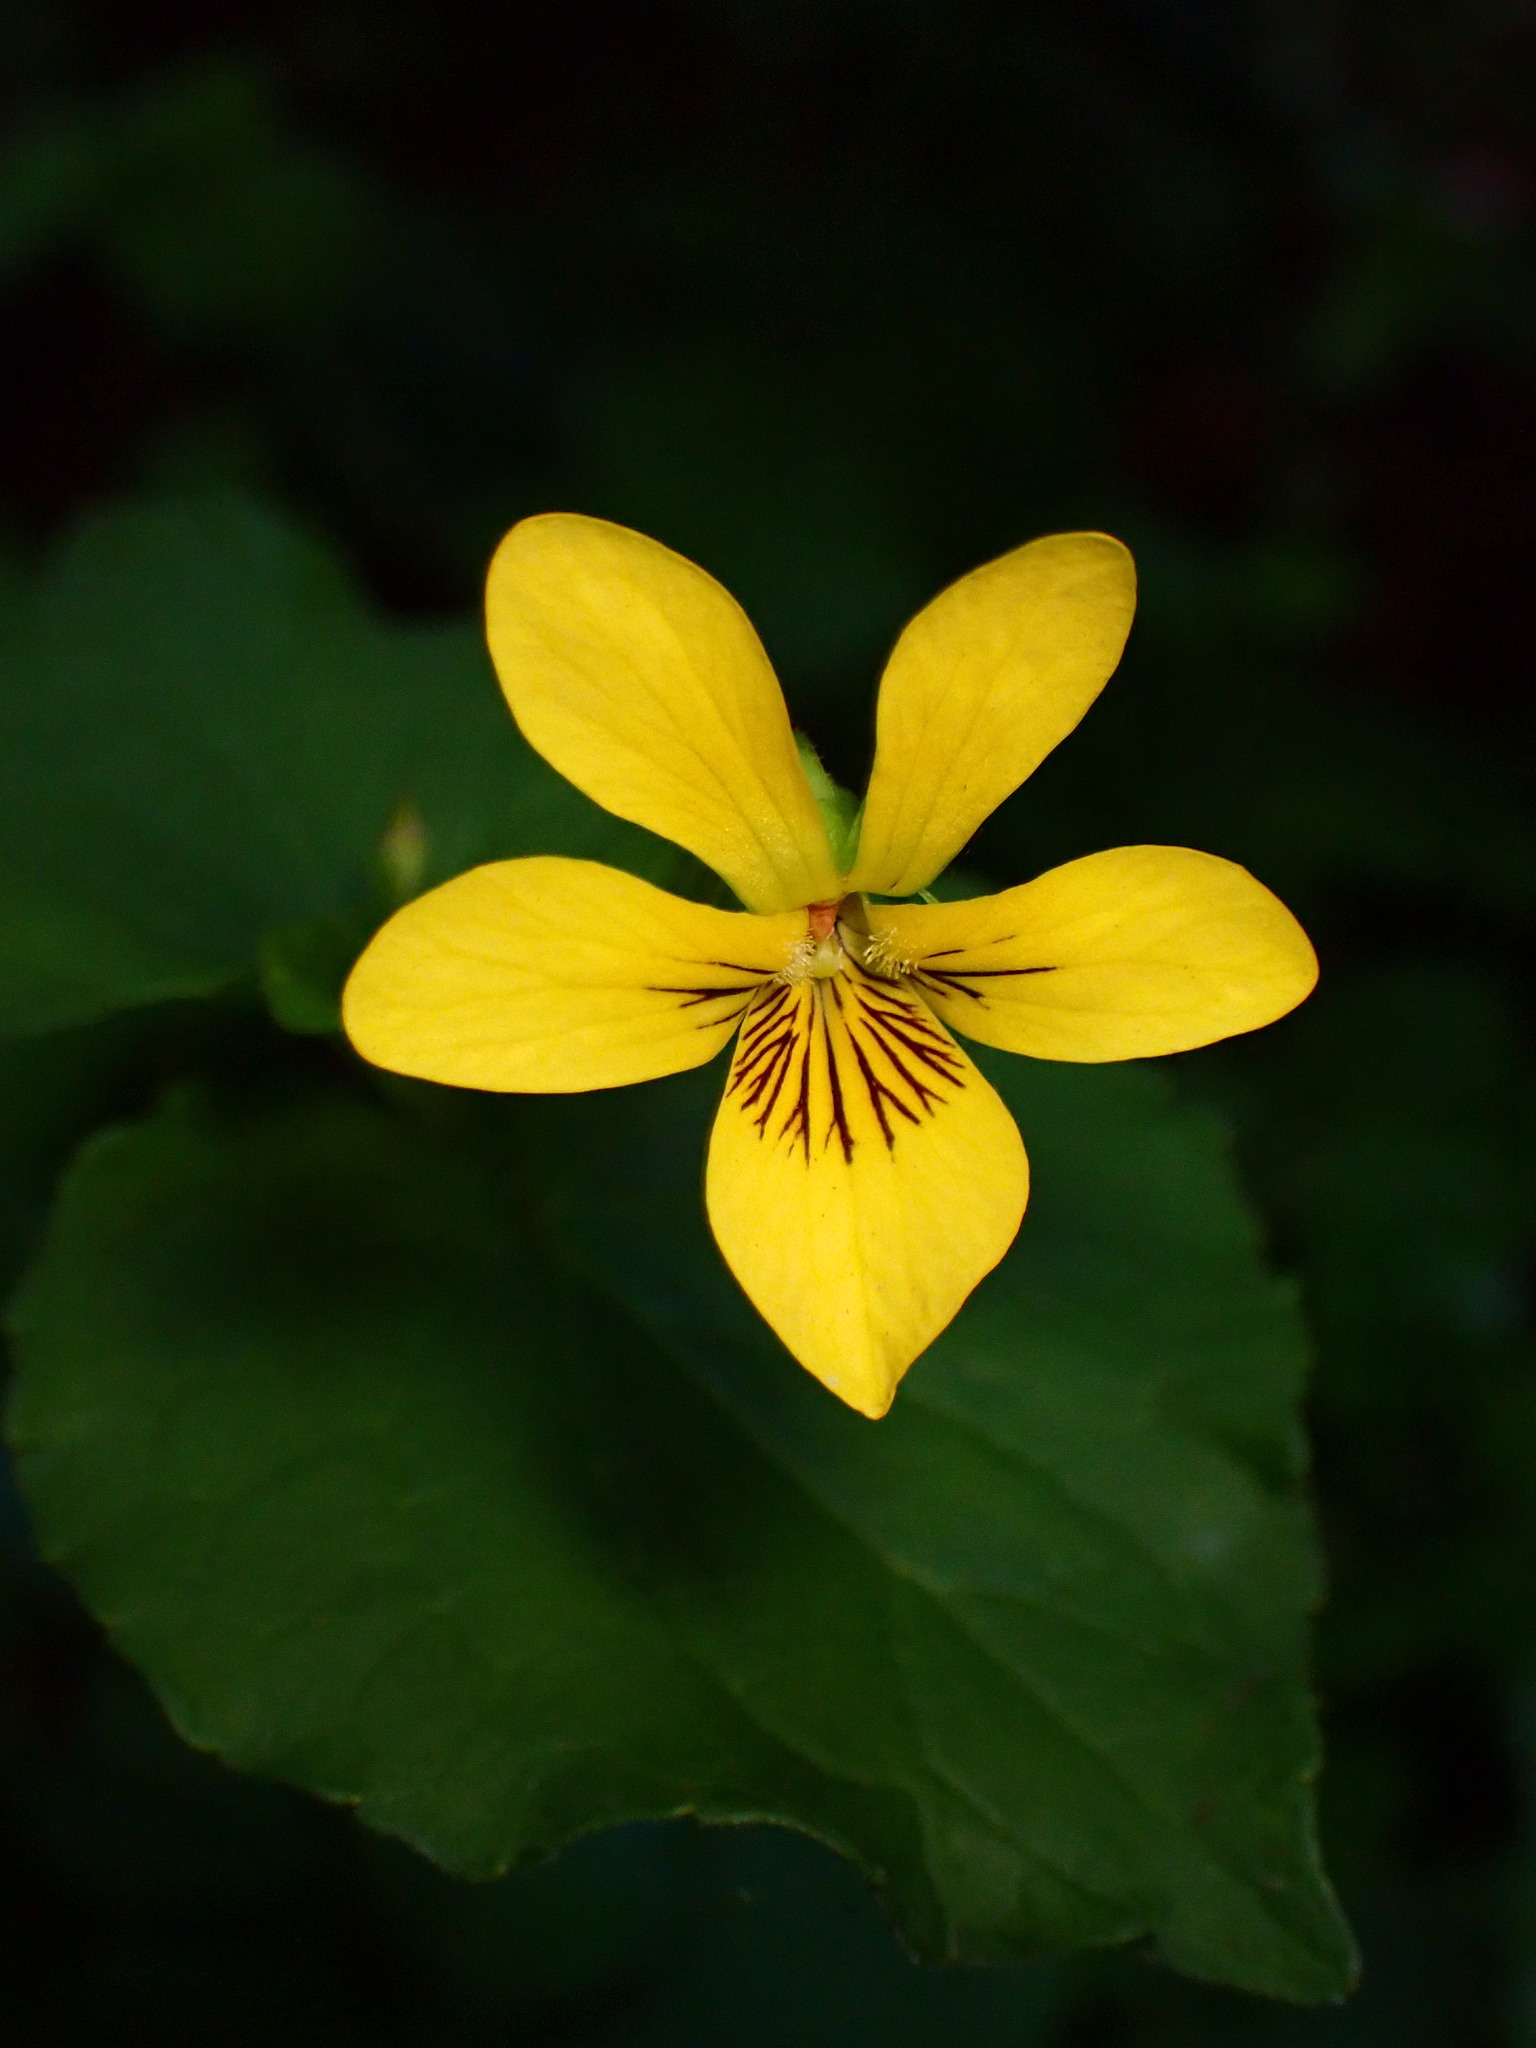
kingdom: Plantae
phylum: Tracheophyta
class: Magnoliopsida
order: Malpighiales
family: Violaceae
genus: Viola
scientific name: Viola glabella
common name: Stream violet
